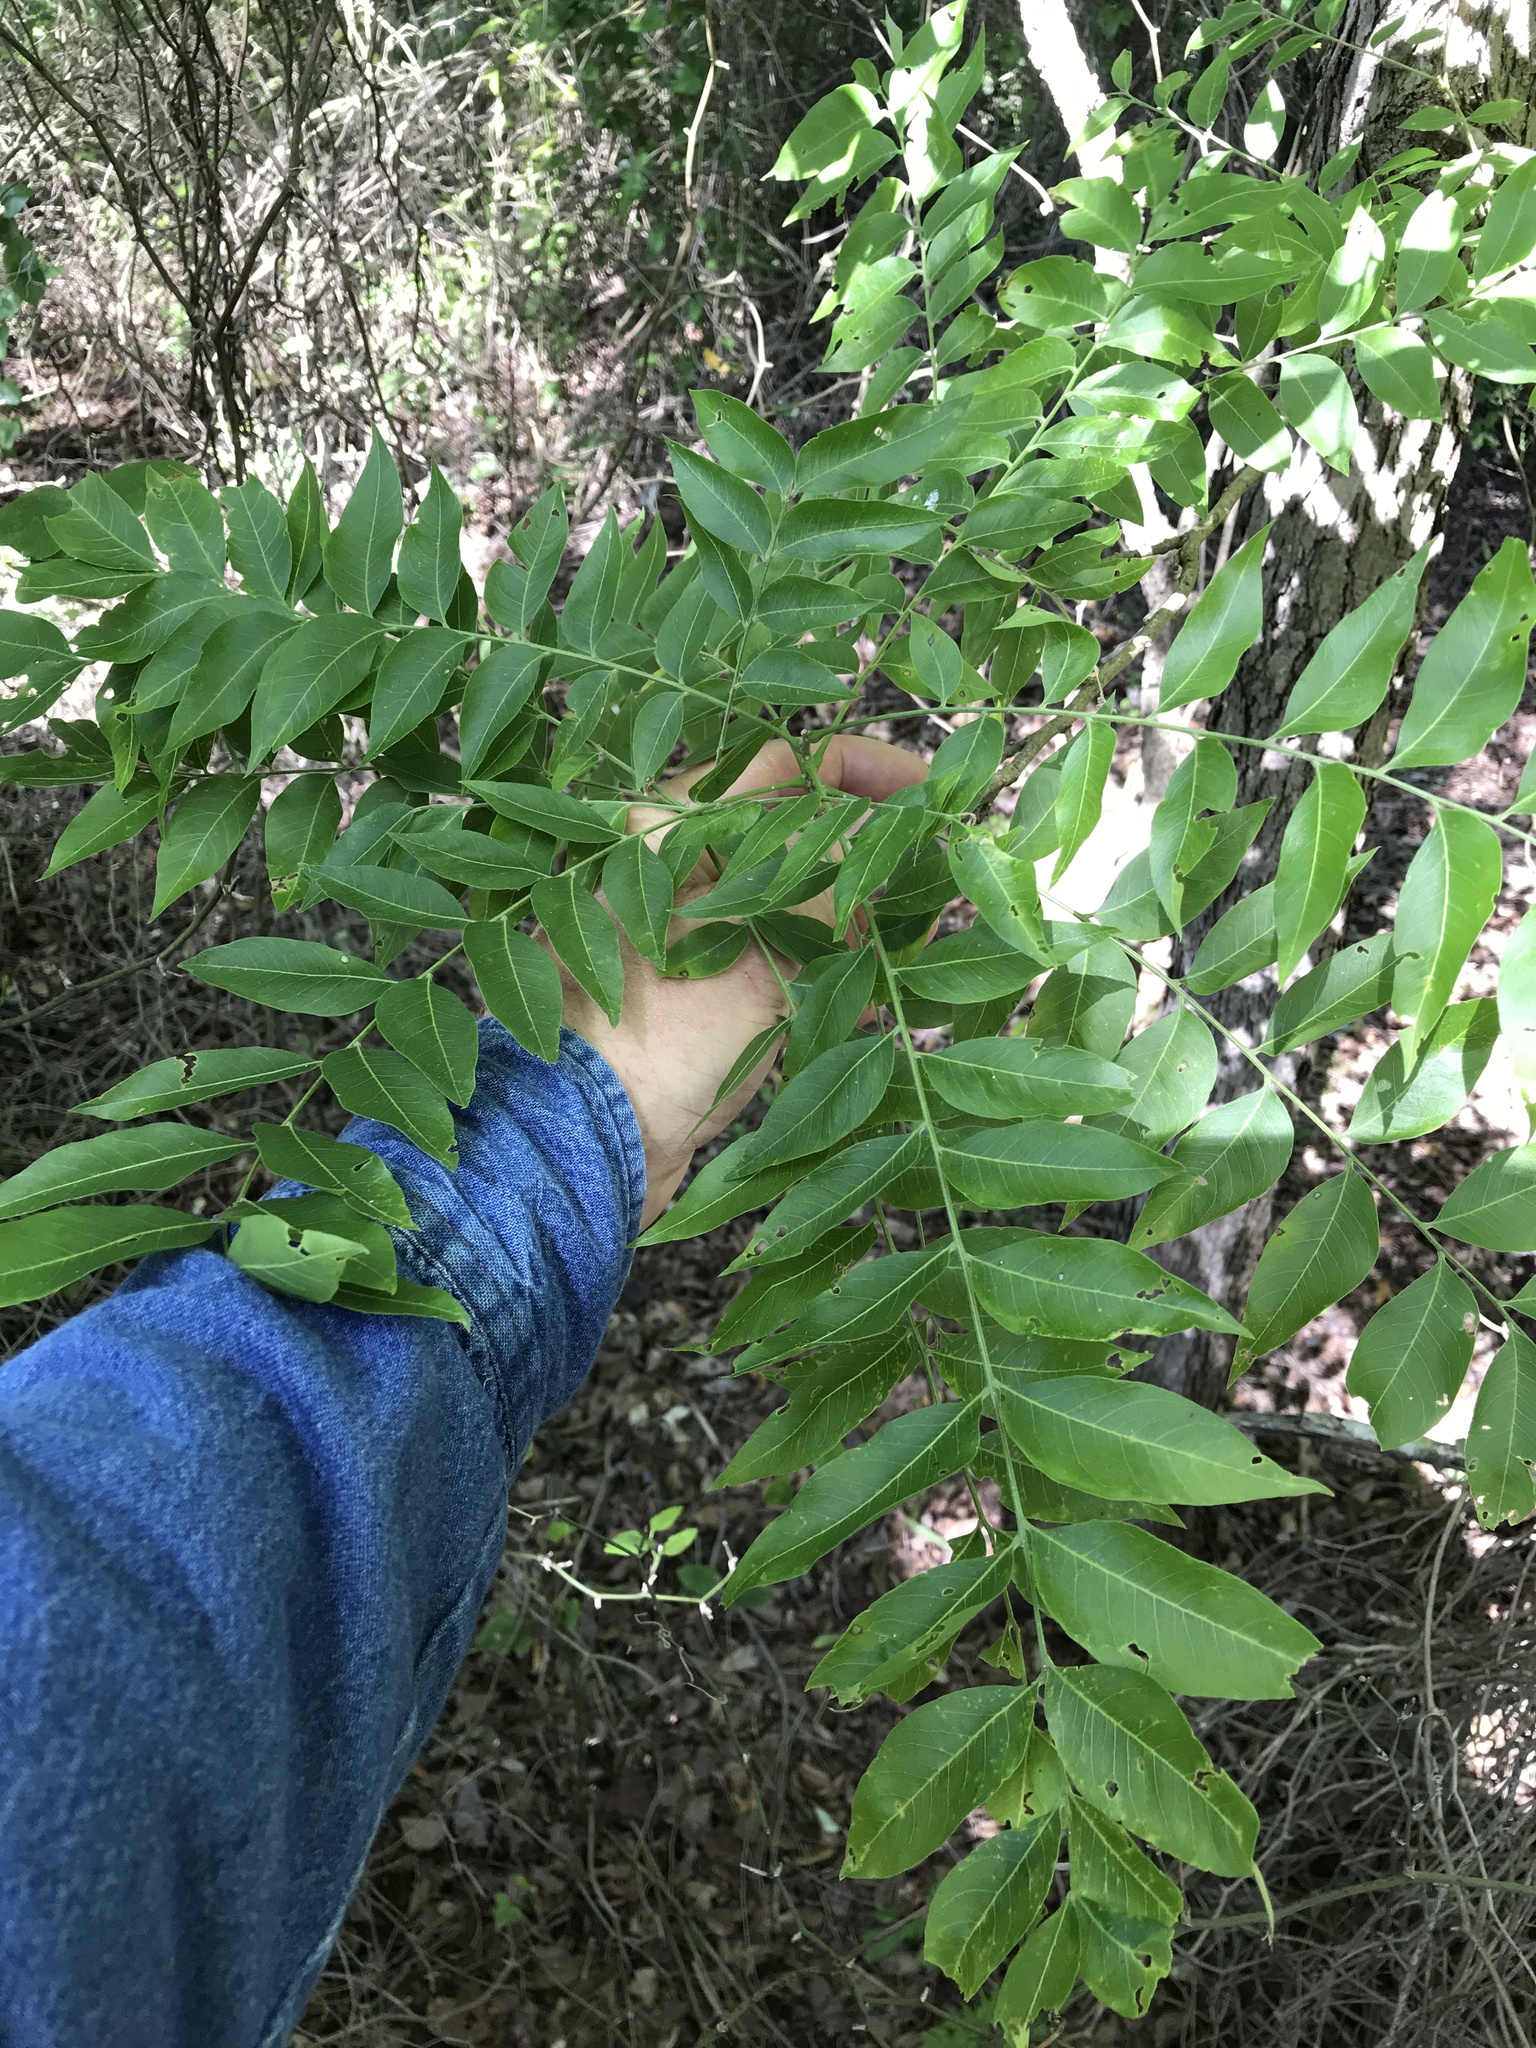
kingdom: Plantae
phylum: Tracheophyta
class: Magnoliopsida
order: Sapindales
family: Sapindaceae
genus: Sapindus
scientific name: Sapindus drummondii
